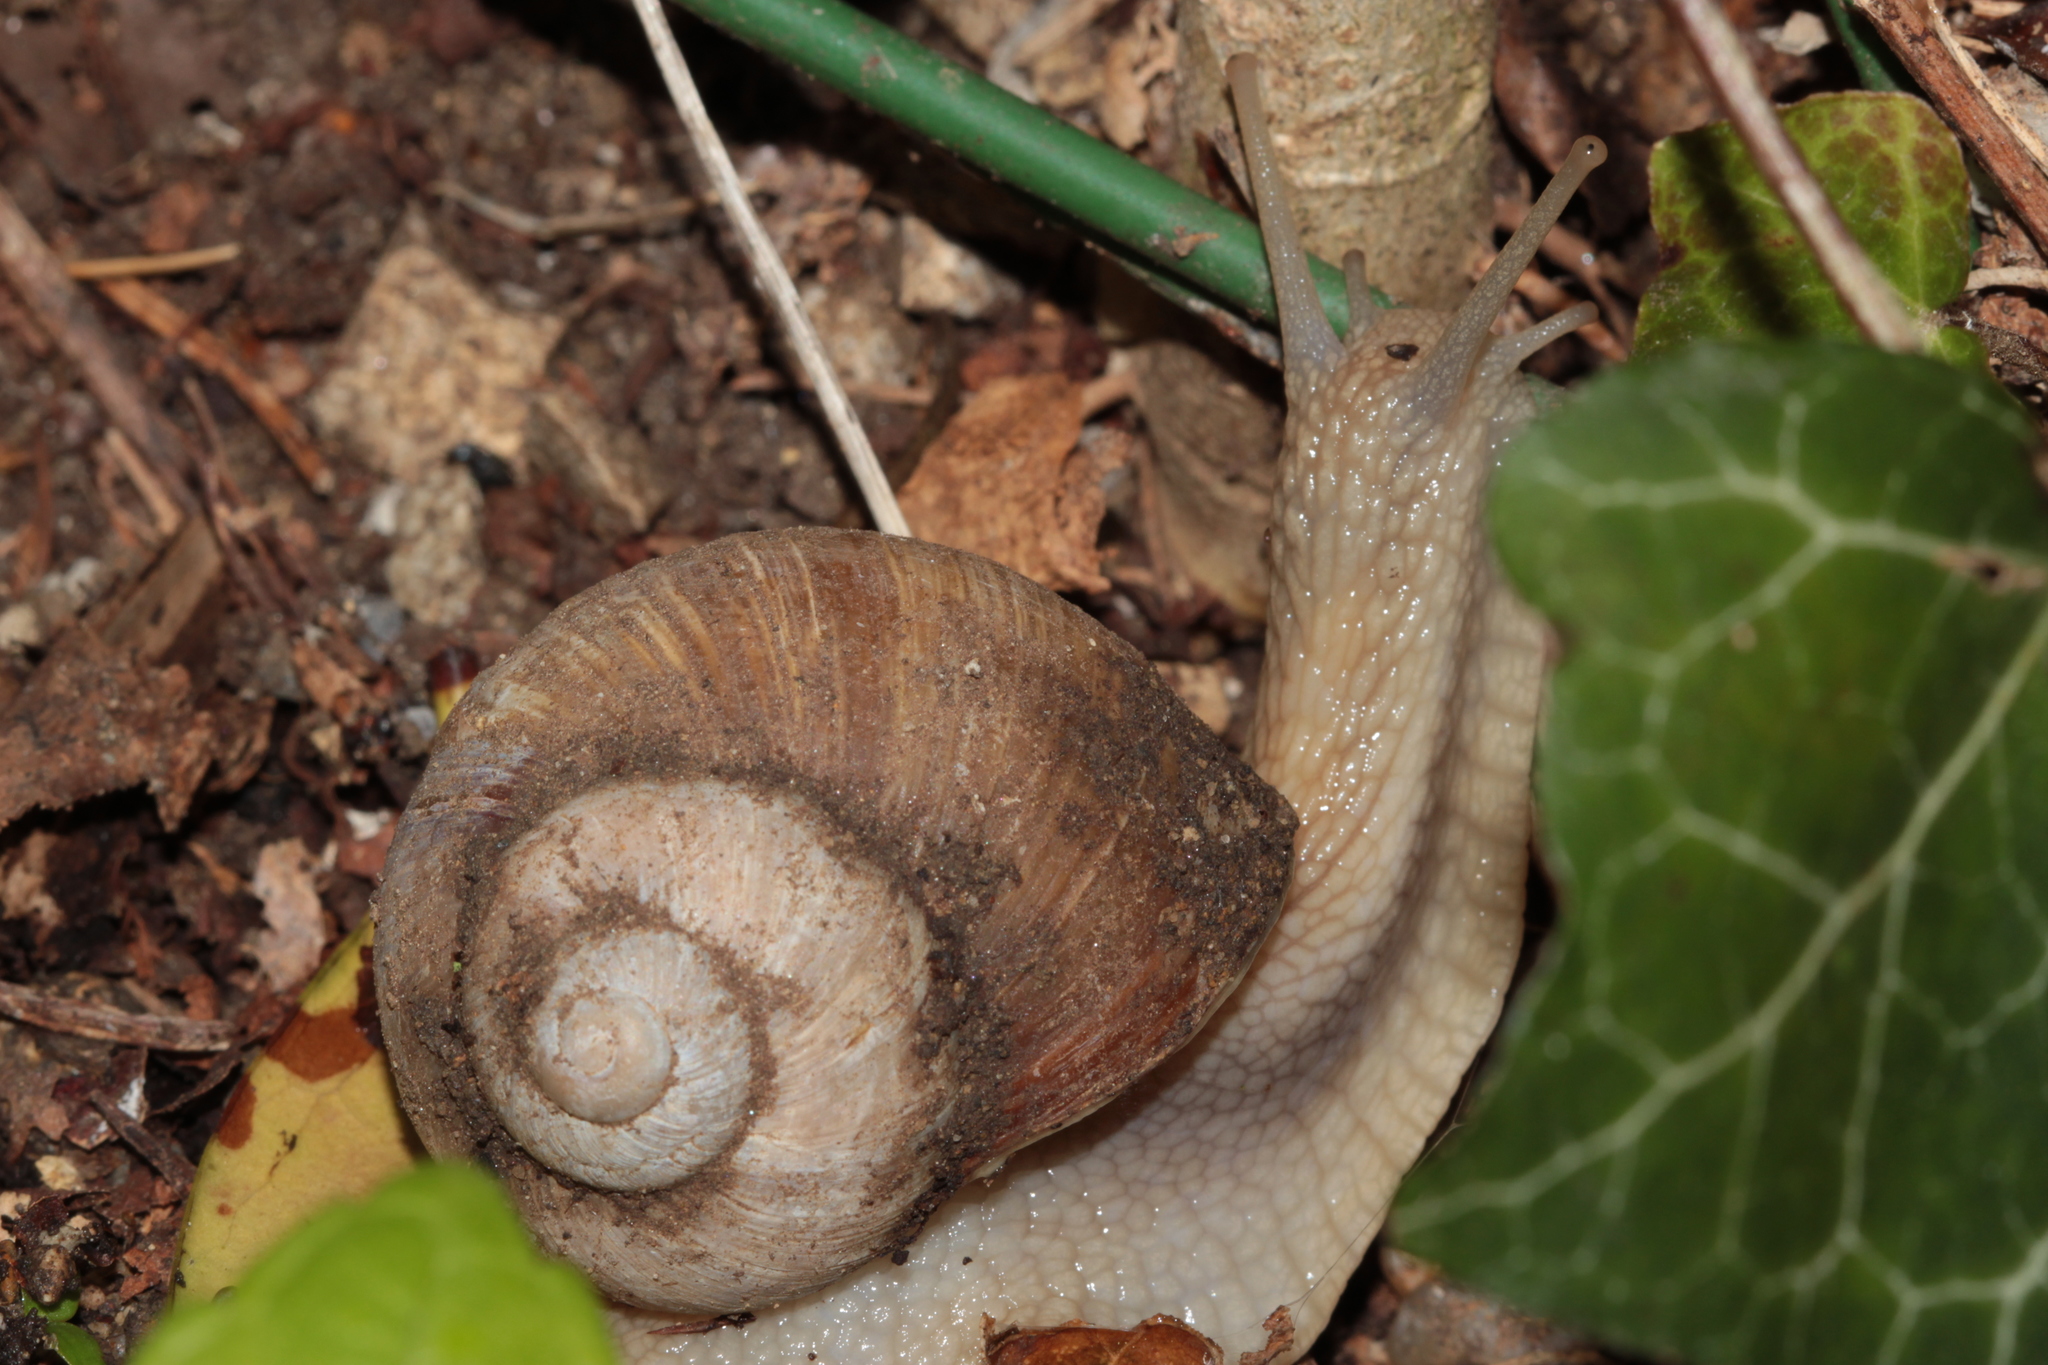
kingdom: Animalia
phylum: Mollusca
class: Gastropoda
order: Stylommatophora
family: Helicidae
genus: Helix
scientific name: Helix pomatia
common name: Roman snail
